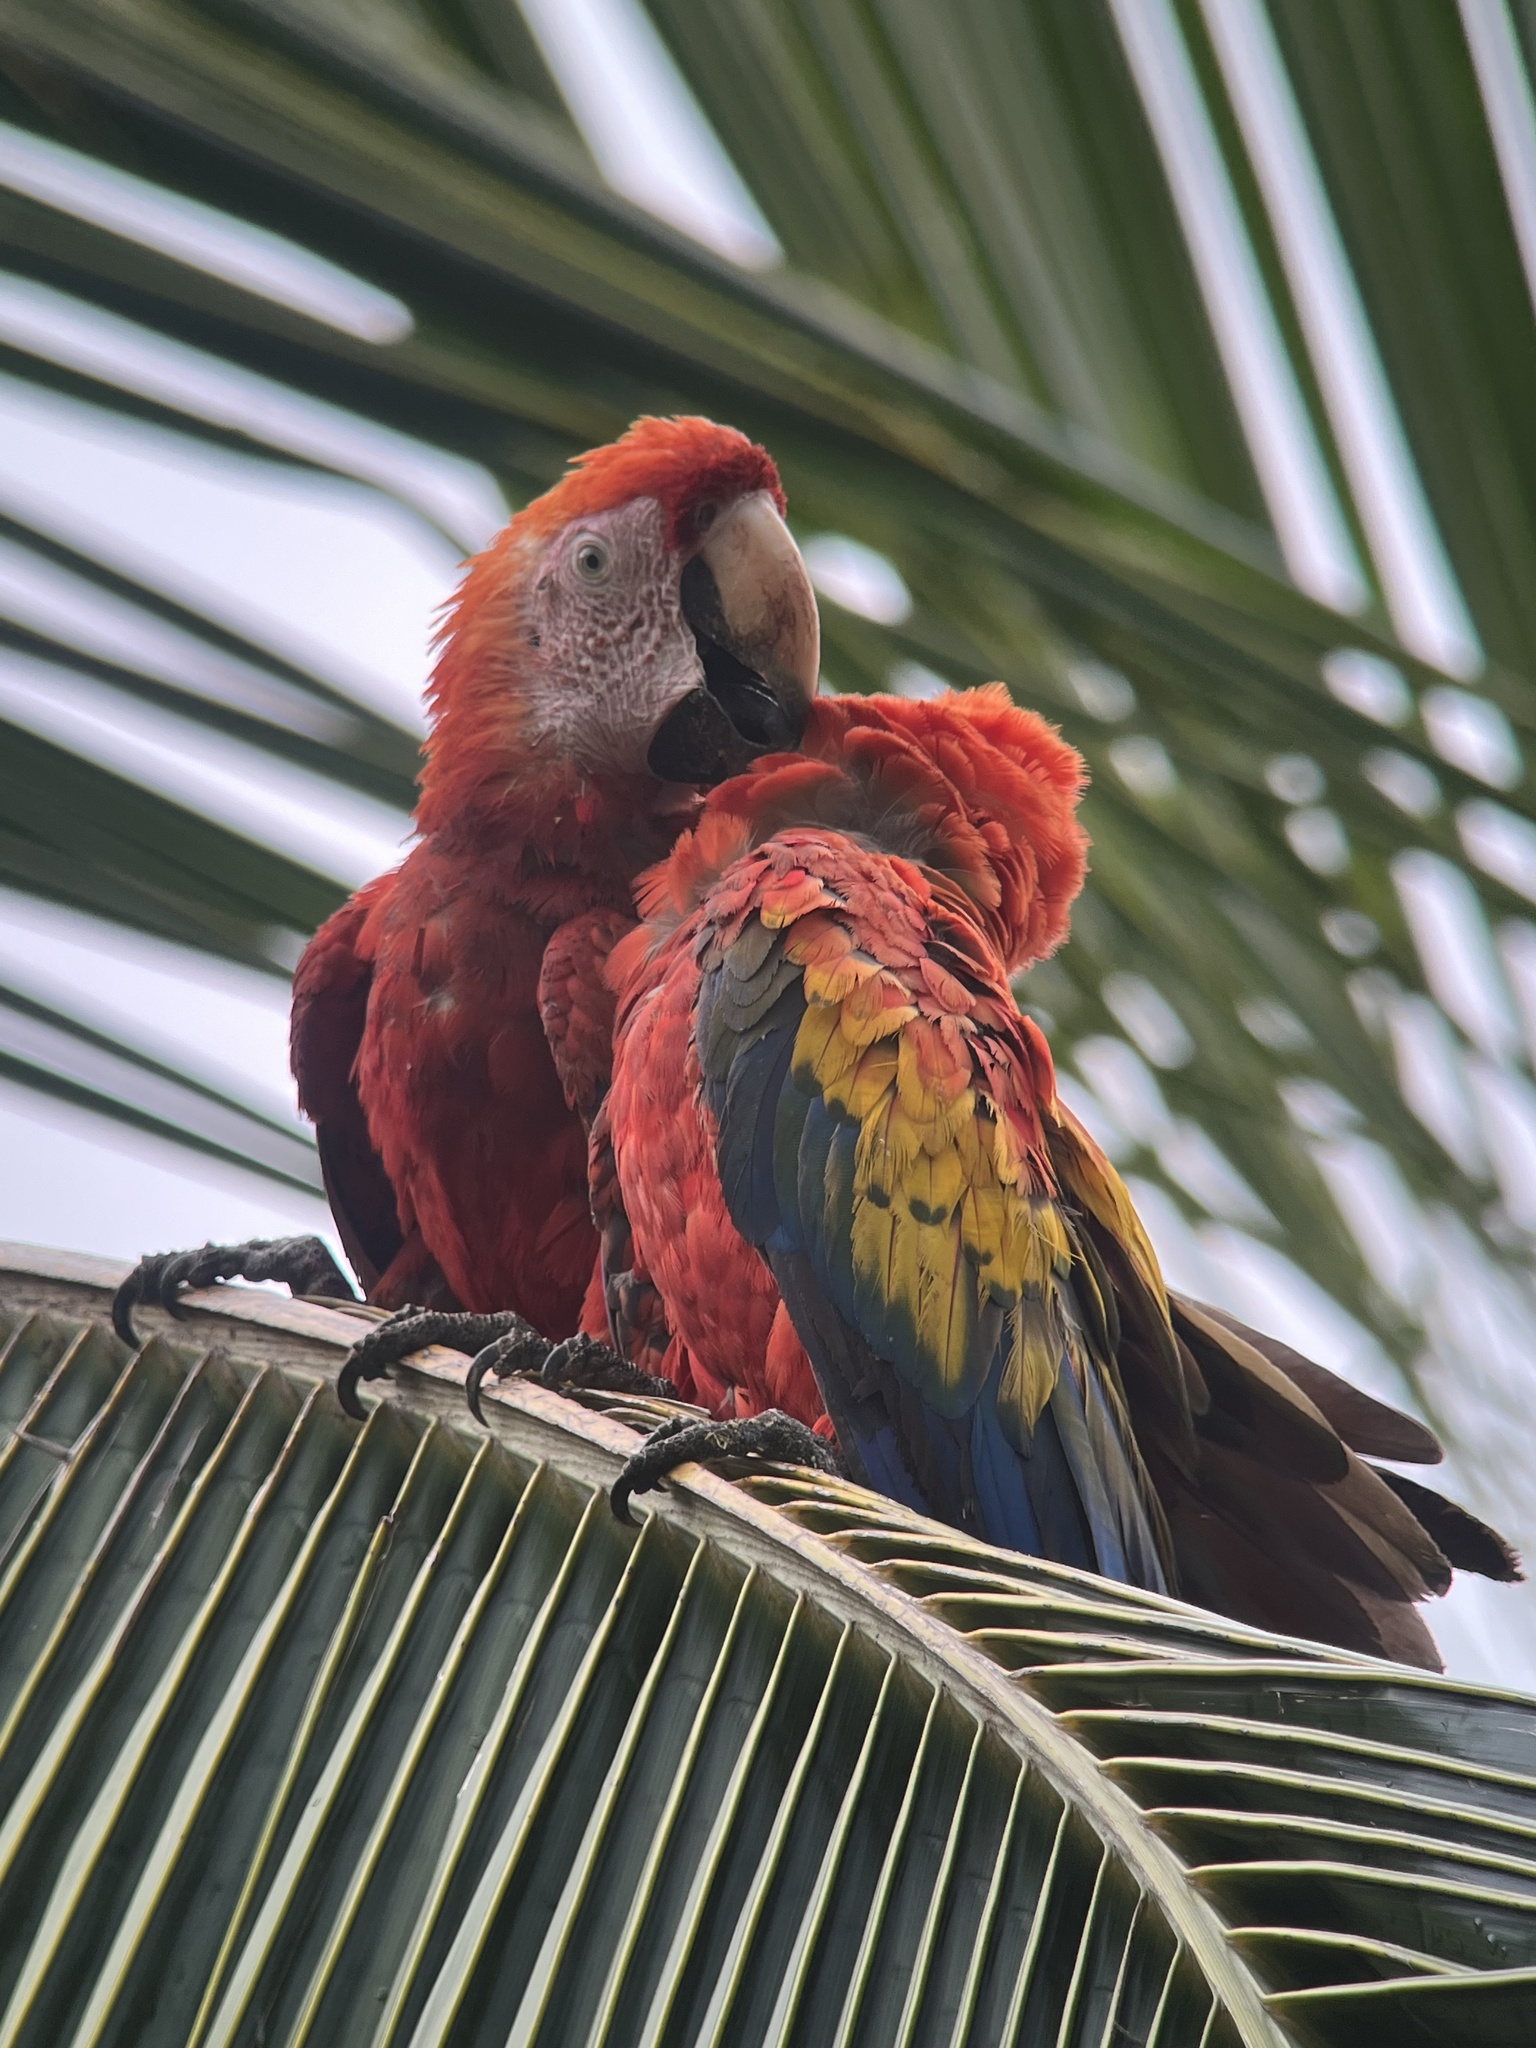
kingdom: Animalia
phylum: Chordata
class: Aves
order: Psittaciformes
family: Psittacidae
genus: Ara
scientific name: Ara macao
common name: Scarlet macaw
